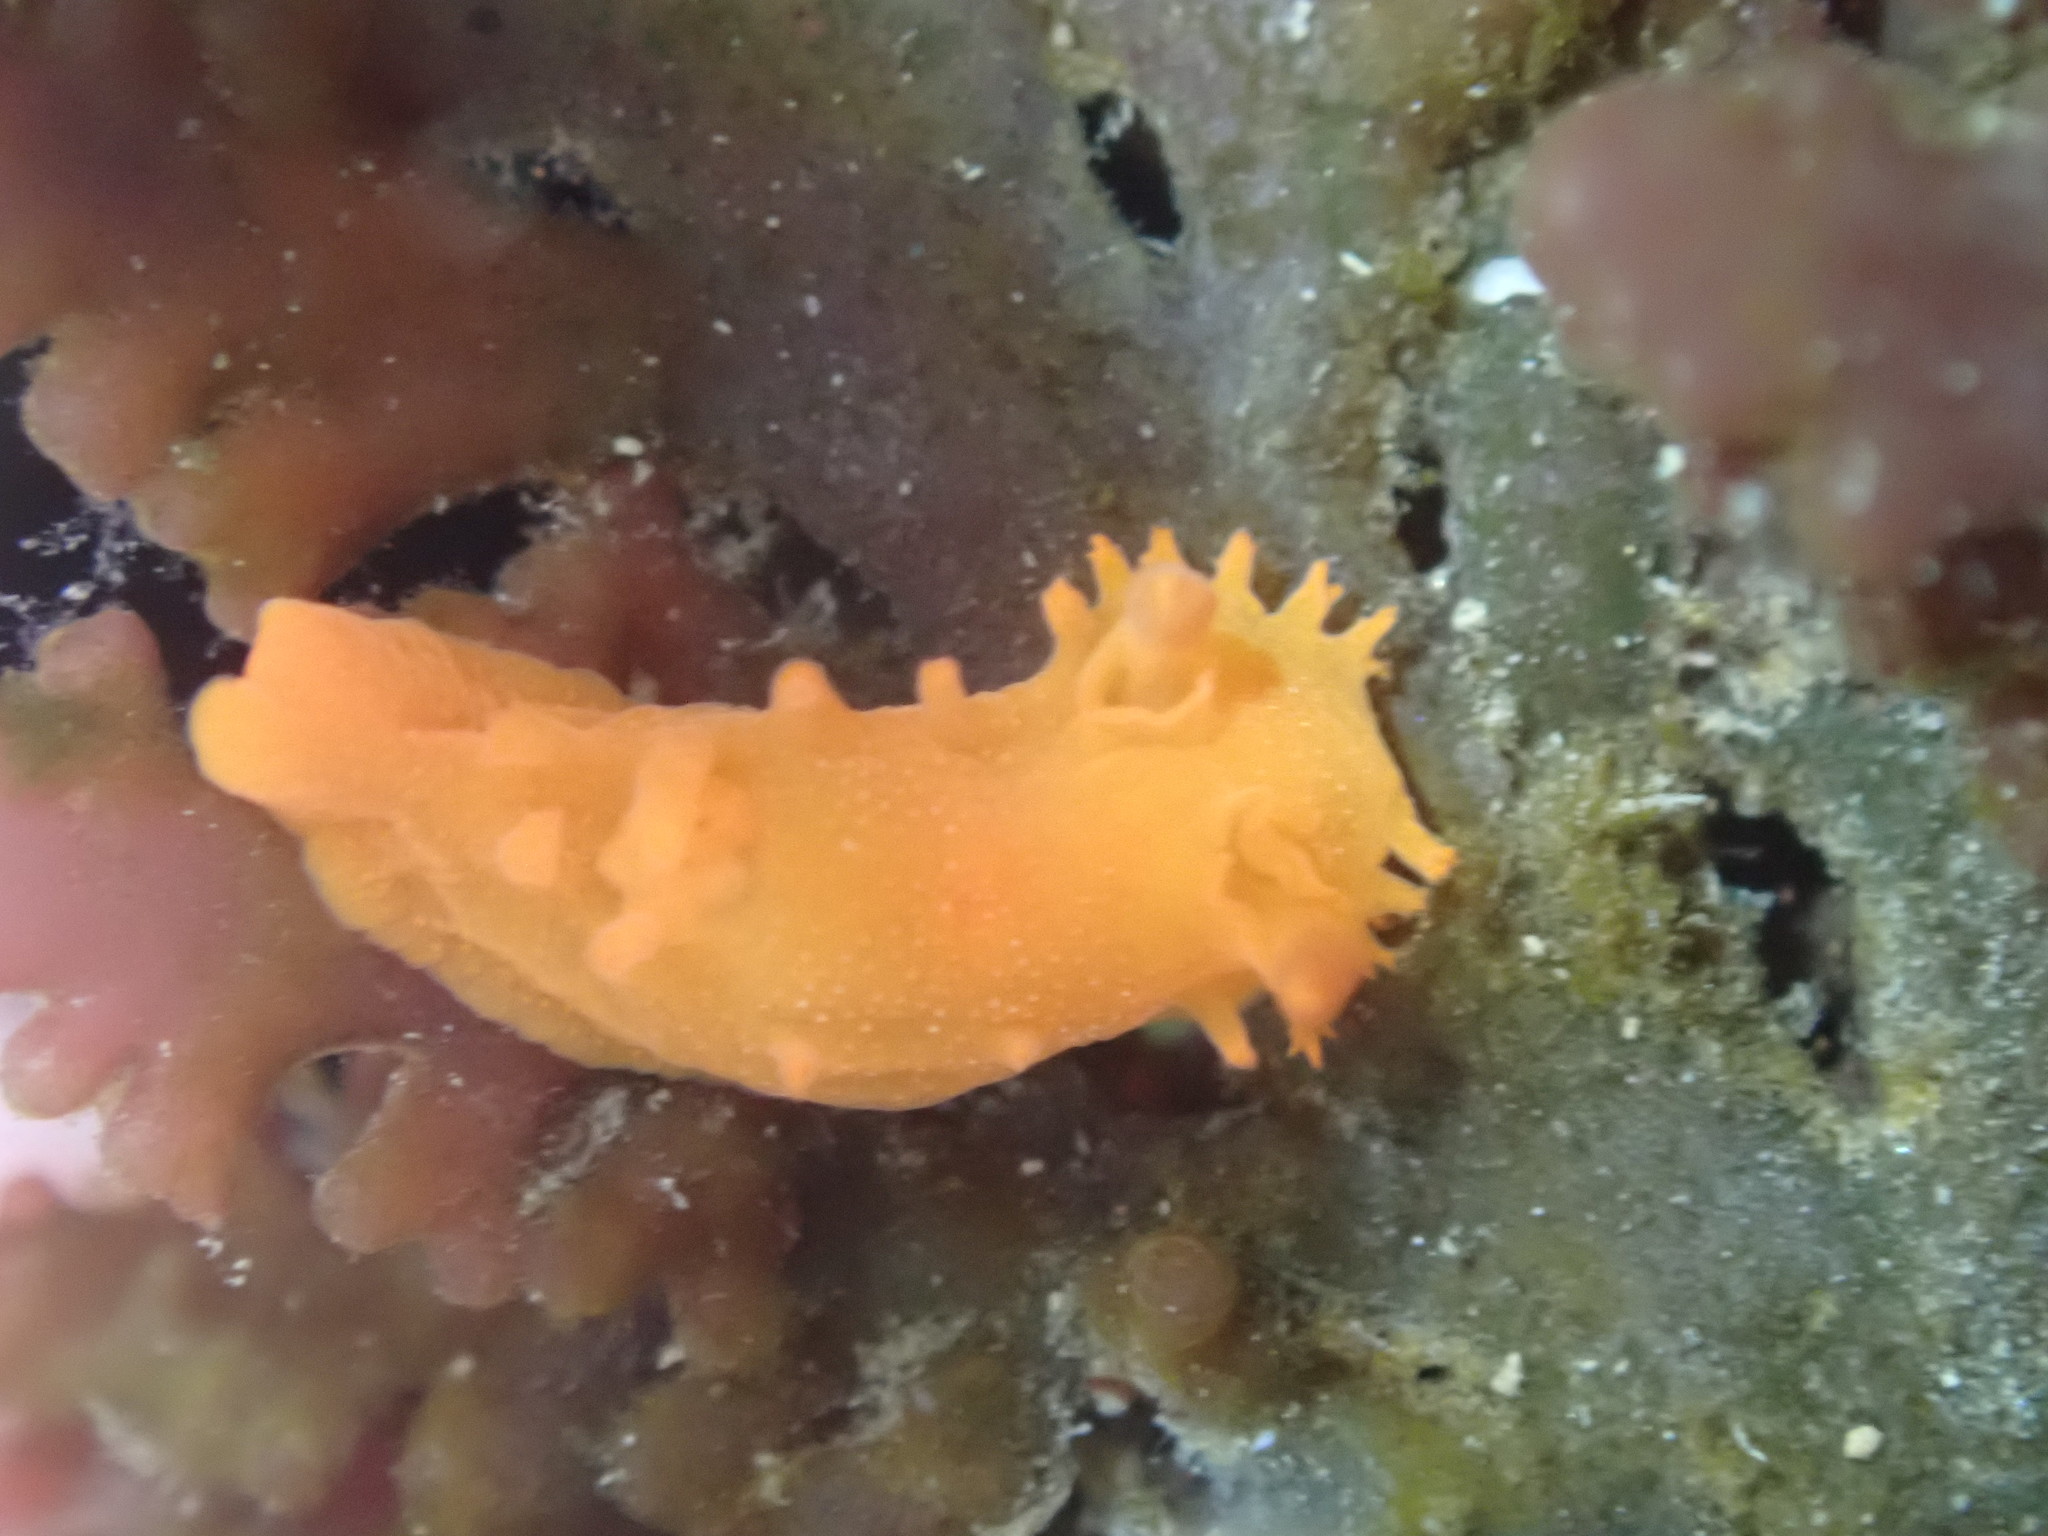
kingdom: Animalia
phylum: Mollusca
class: Gastropoda
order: Nudibranchia
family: Polyceridae
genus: Triopha
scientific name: Triopha maculata
